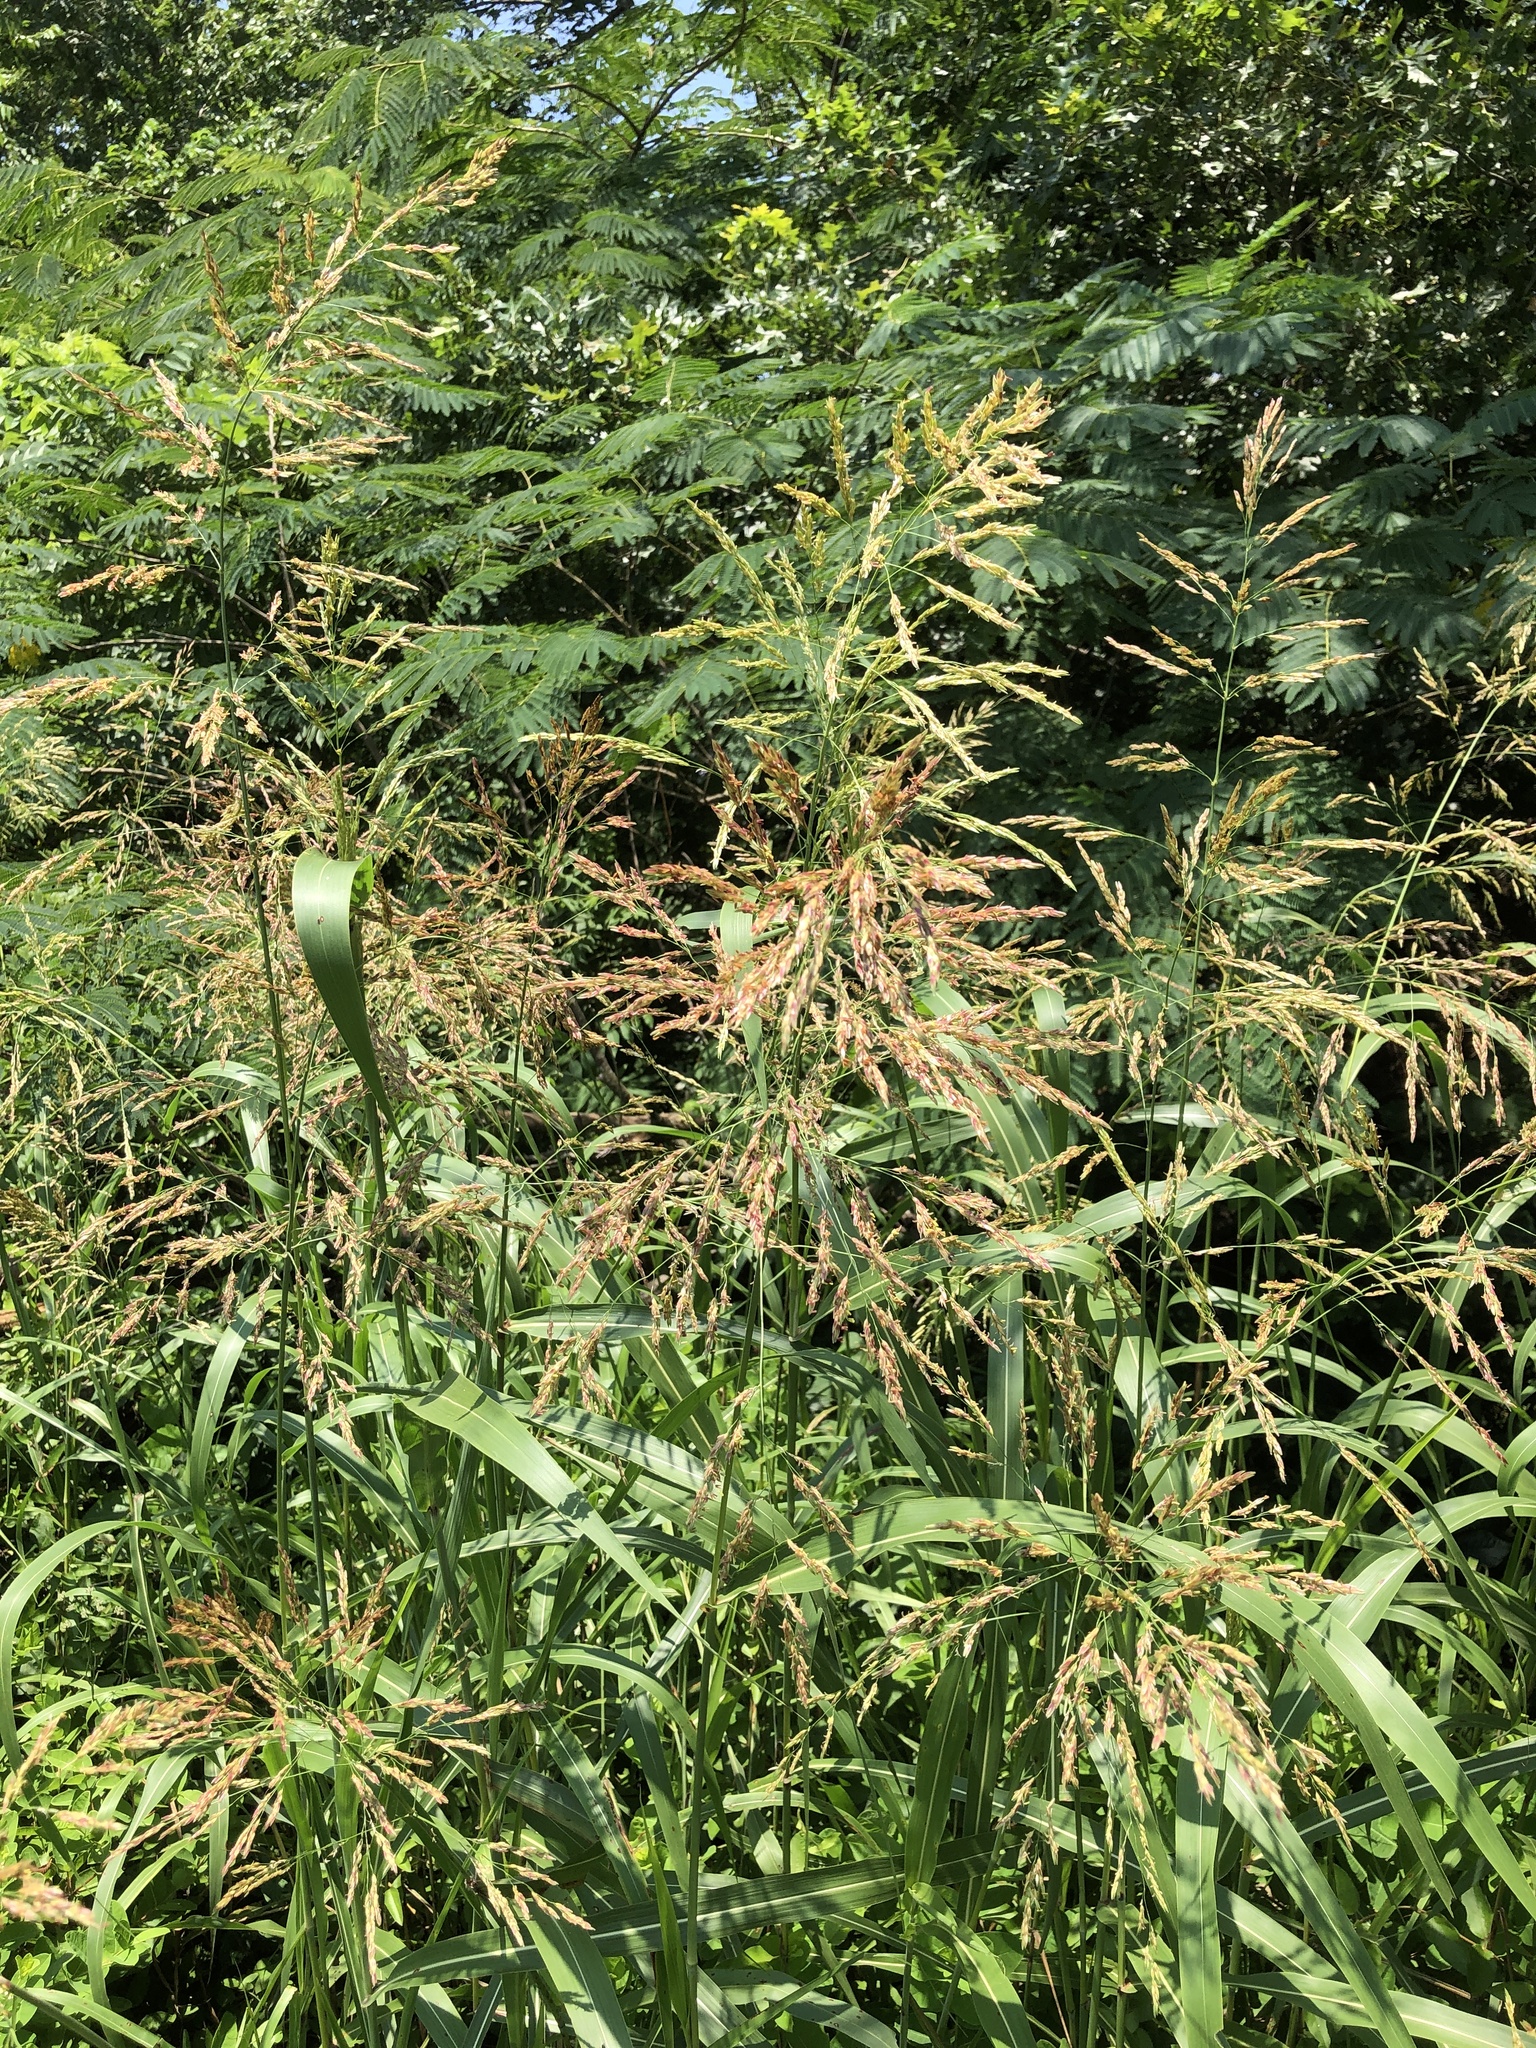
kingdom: Plantae
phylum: Tracheophyta
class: Liliopsida
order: Poales
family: Poaceae
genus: Sorghum
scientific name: Sorghum halepense
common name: Johnson-grass
